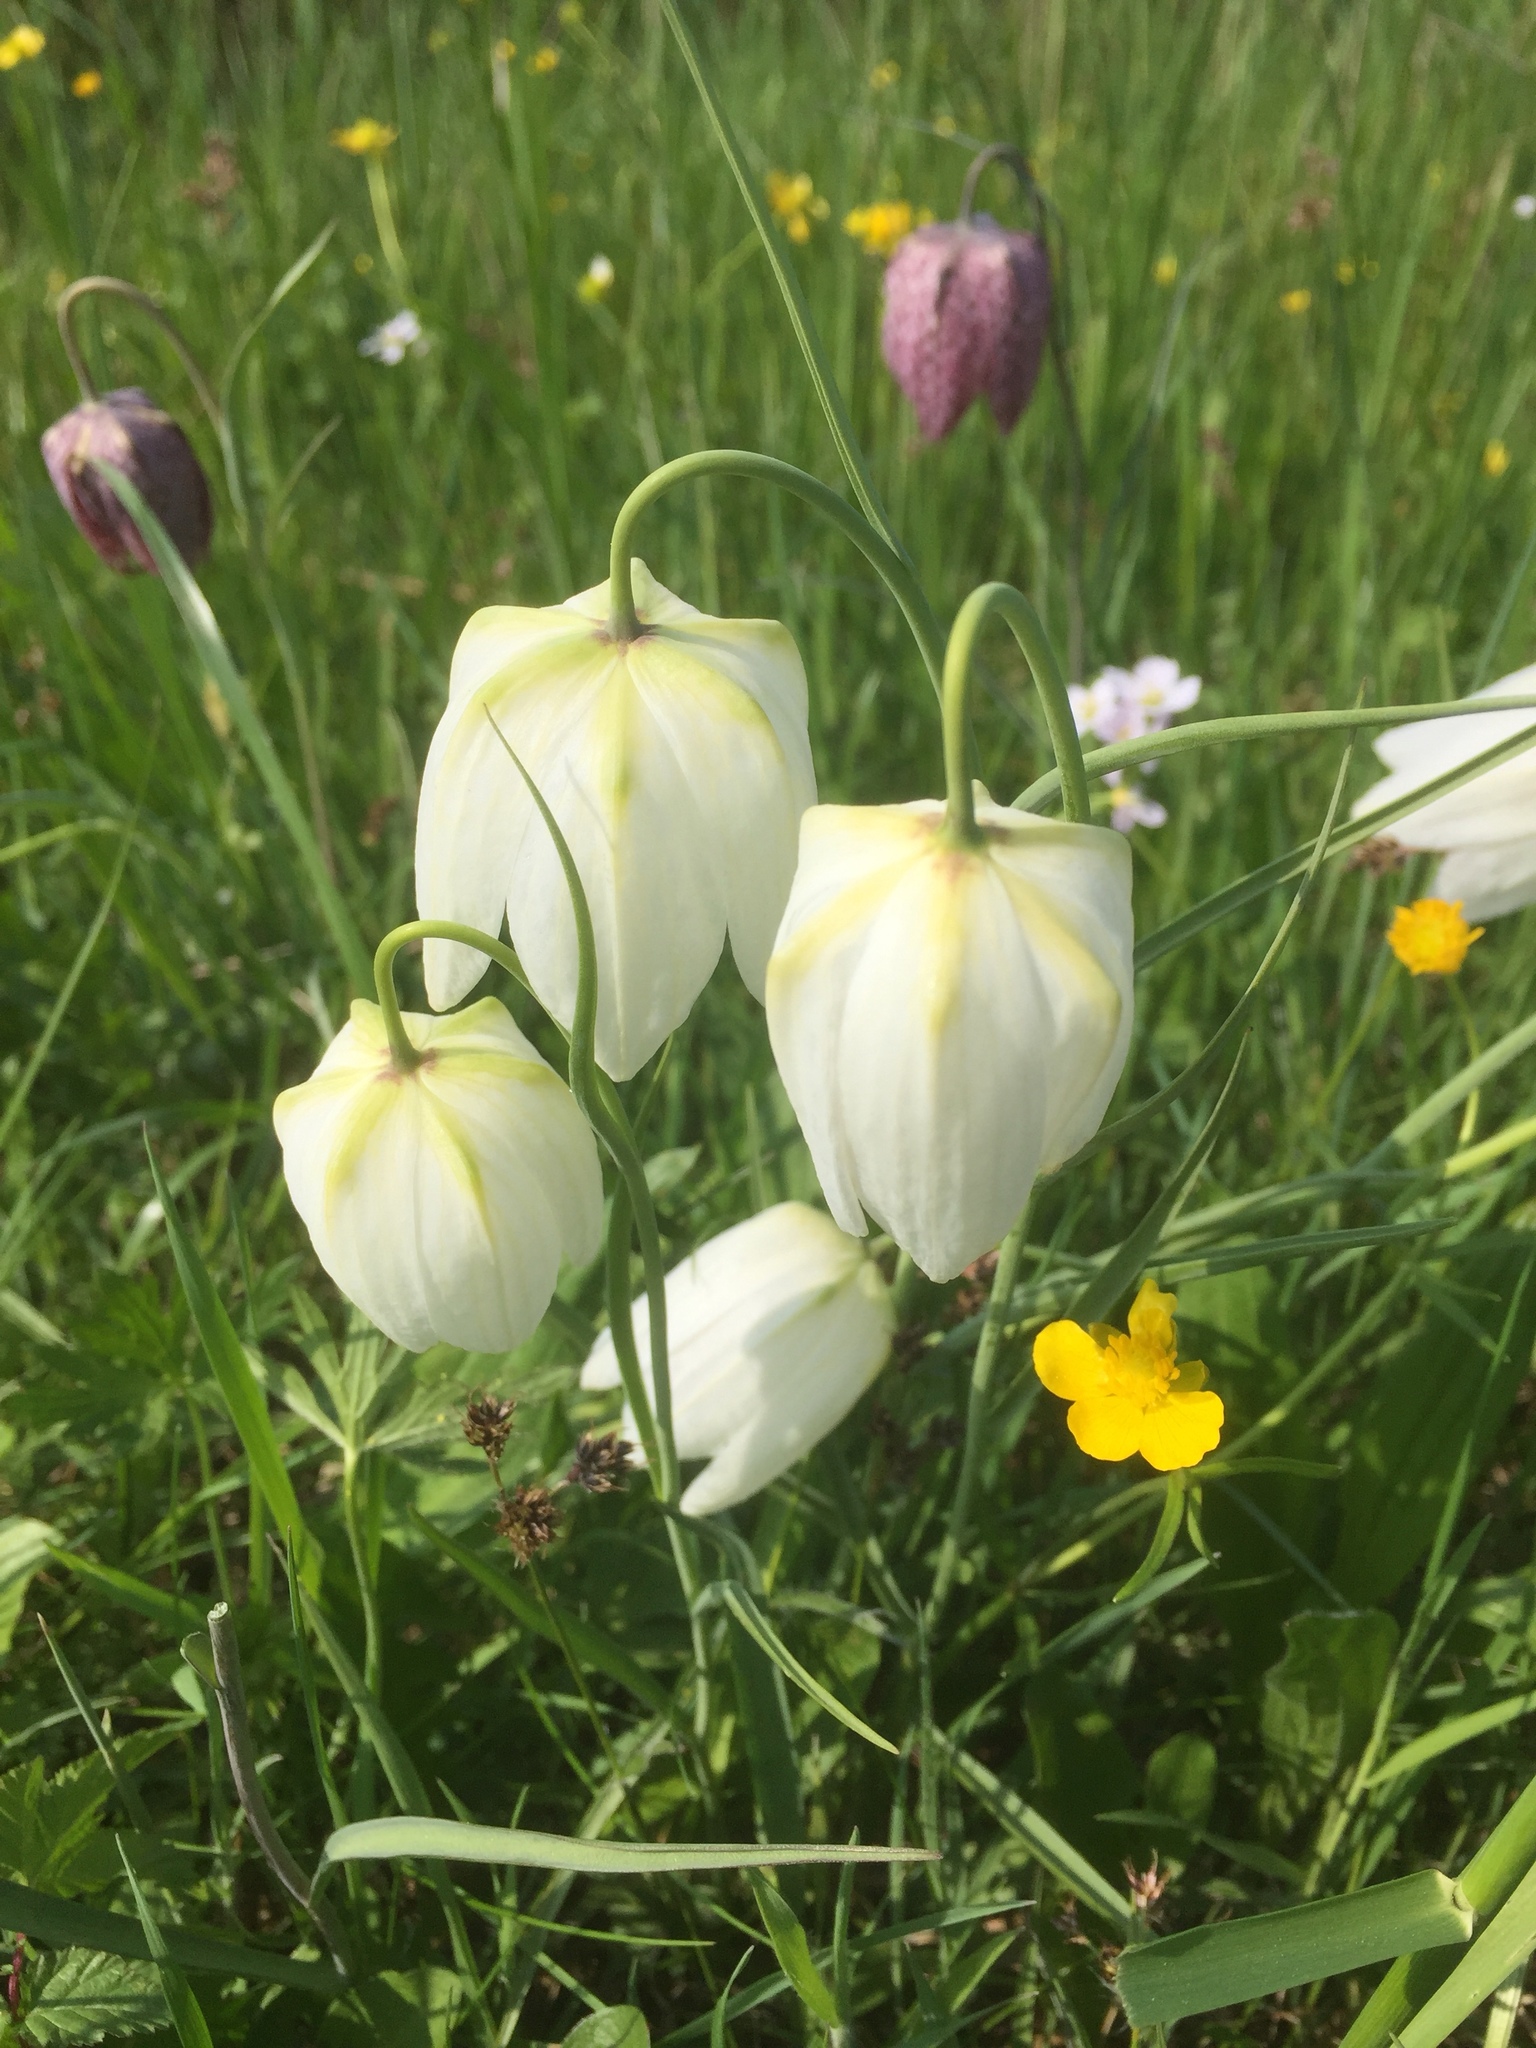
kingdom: Plantae
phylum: Tracheophyta
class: Liliopsida
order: Liliales
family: Liliaceae
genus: Fritillaria
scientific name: Fritillaria meleagris
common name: Fritillary
